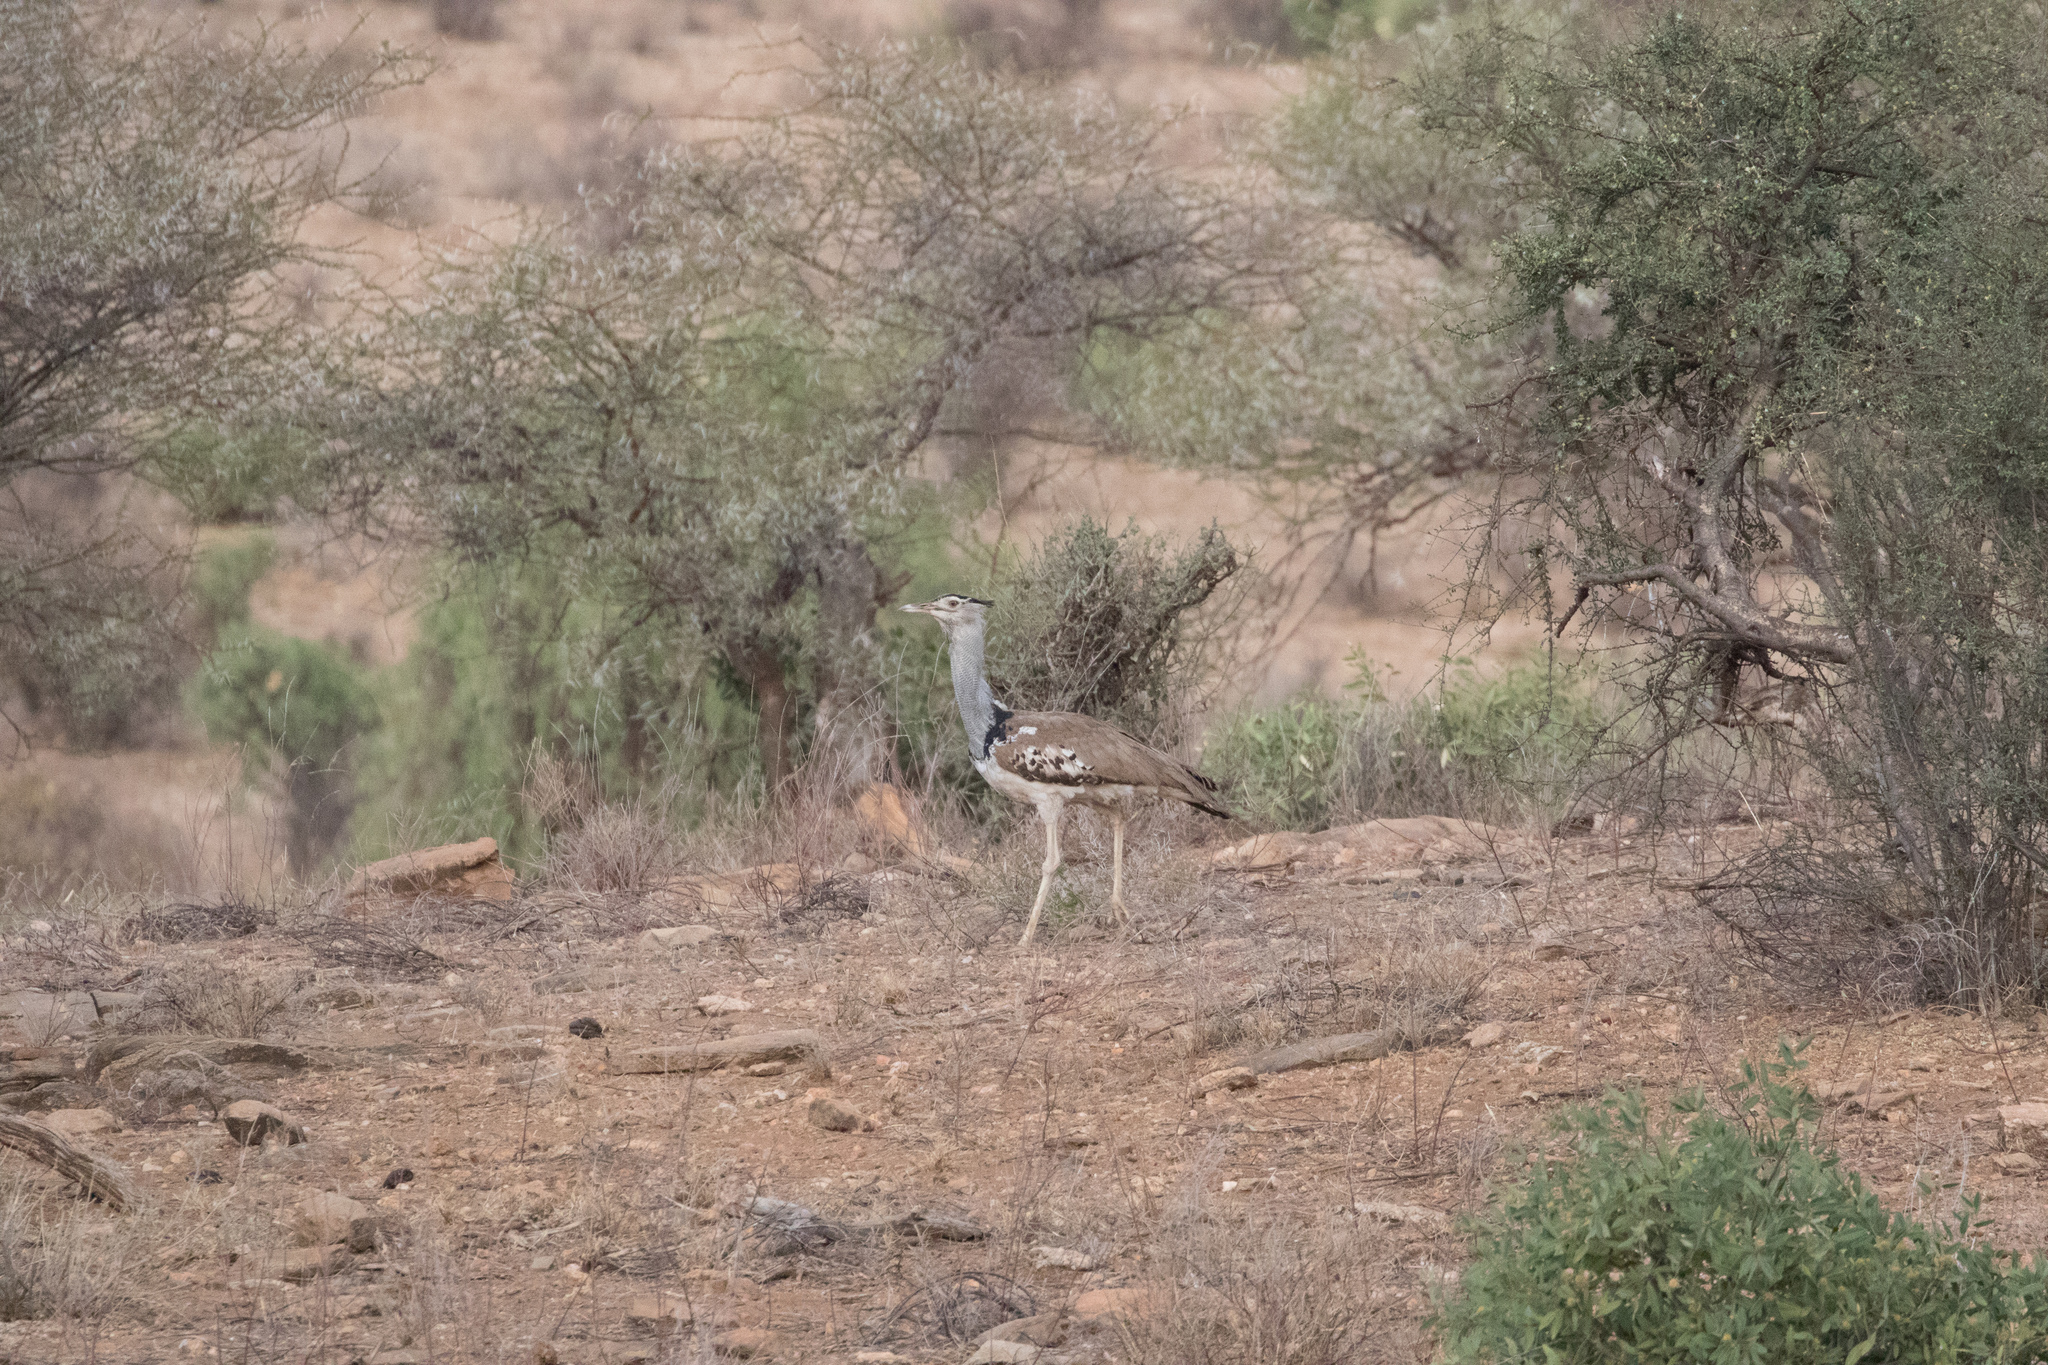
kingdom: Animalia
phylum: Chordata
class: Aves
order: Otidiformes
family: Otididae
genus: Ardeotis
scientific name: Ardeotis kori
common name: Kori bustard
